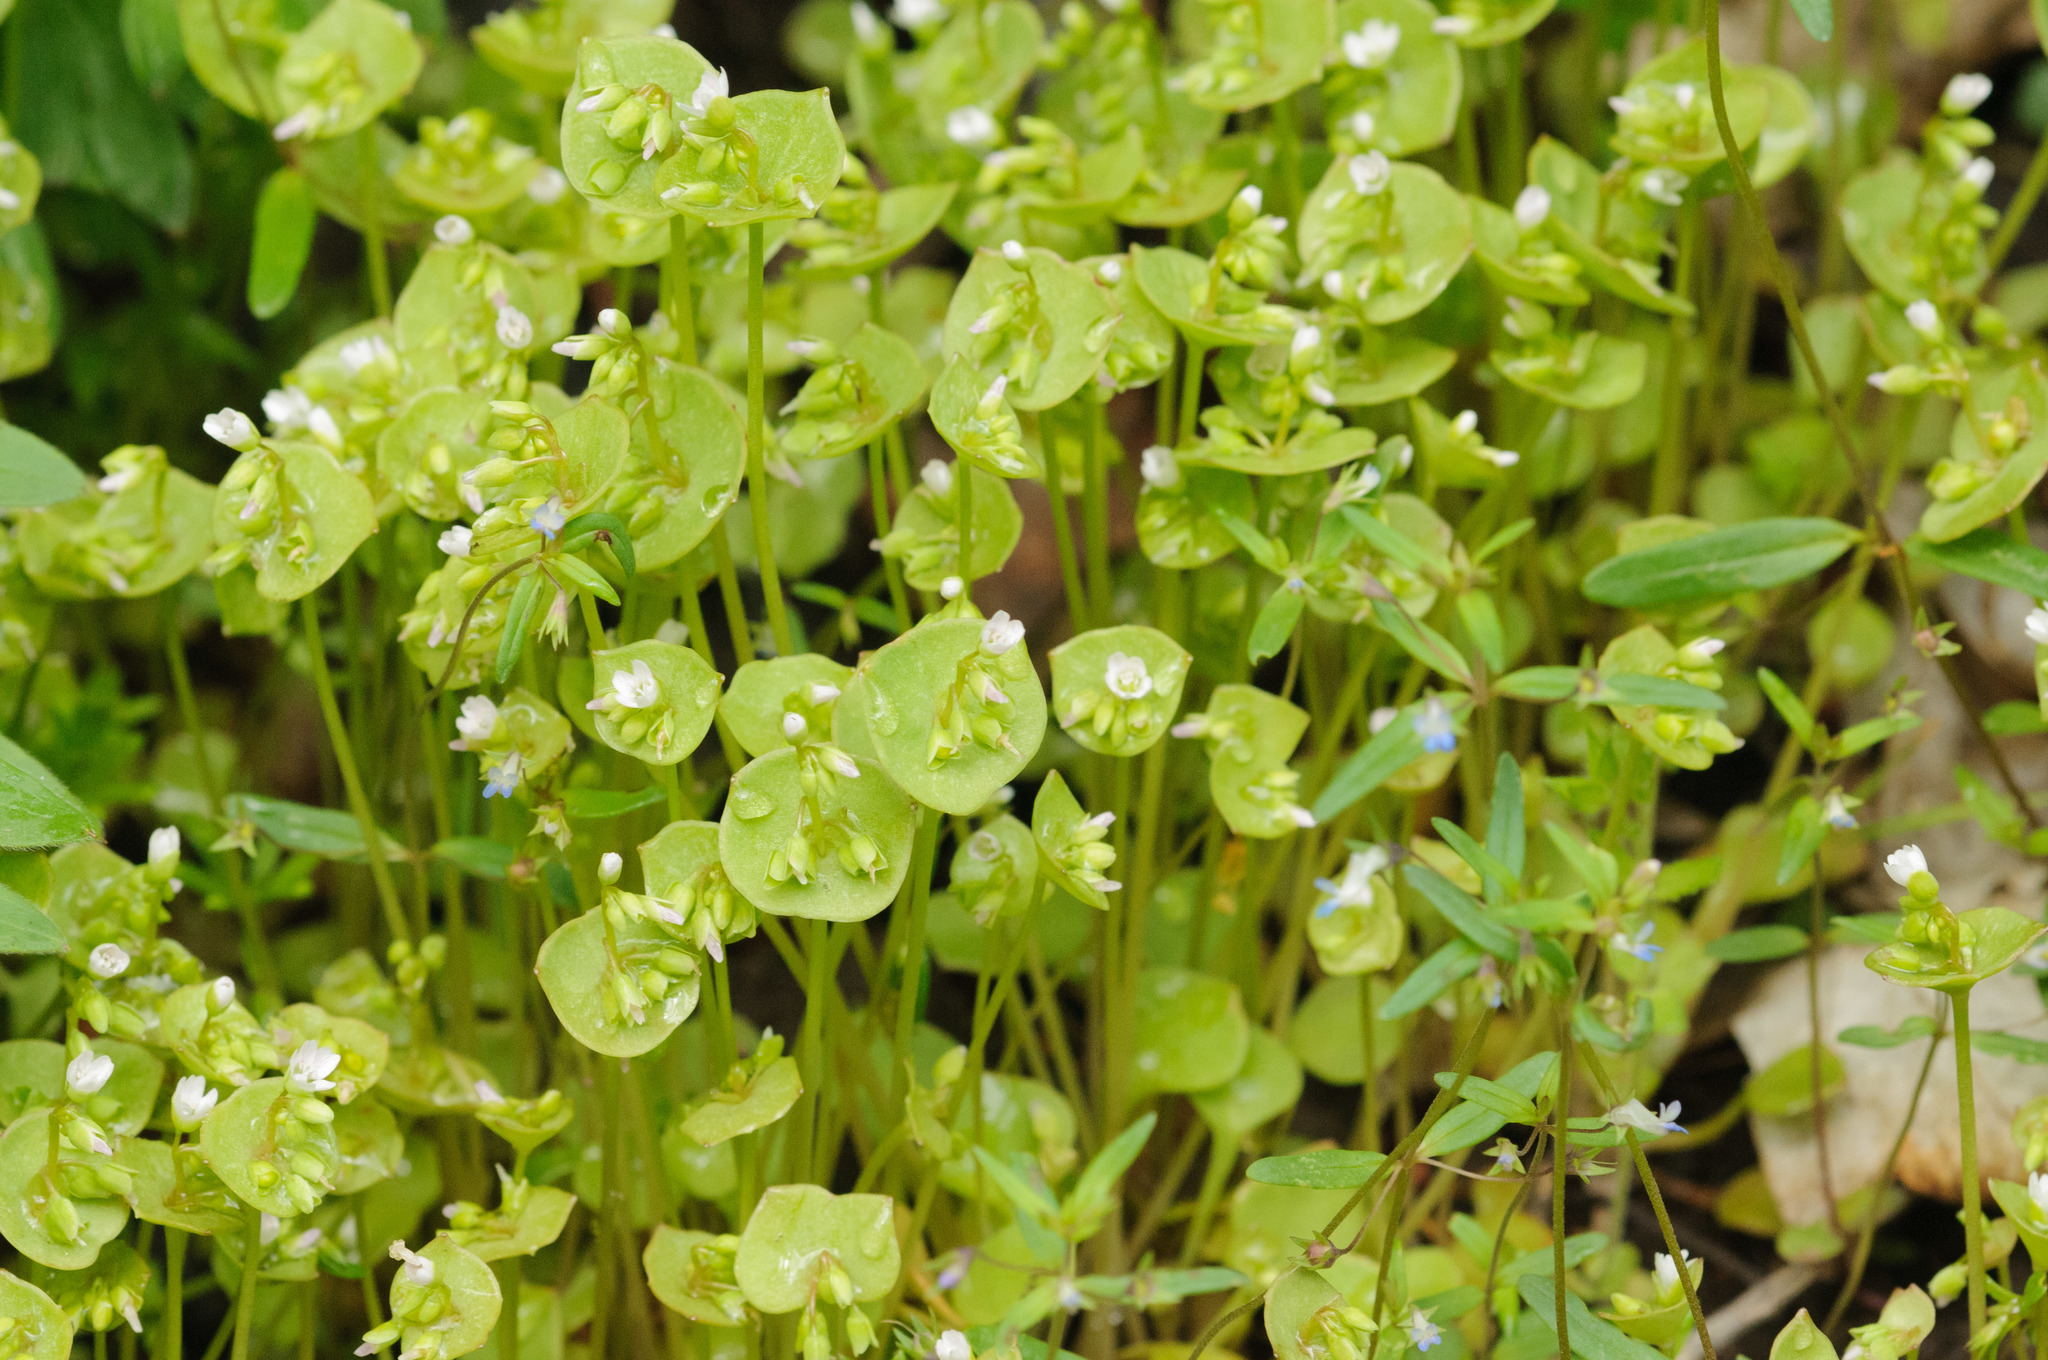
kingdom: Plantae
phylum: Tracheophyta
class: Magnoliopsida
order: Caryophyllales
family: Montiaceae
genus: Claytonia
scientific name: Claytonia perfoliata
